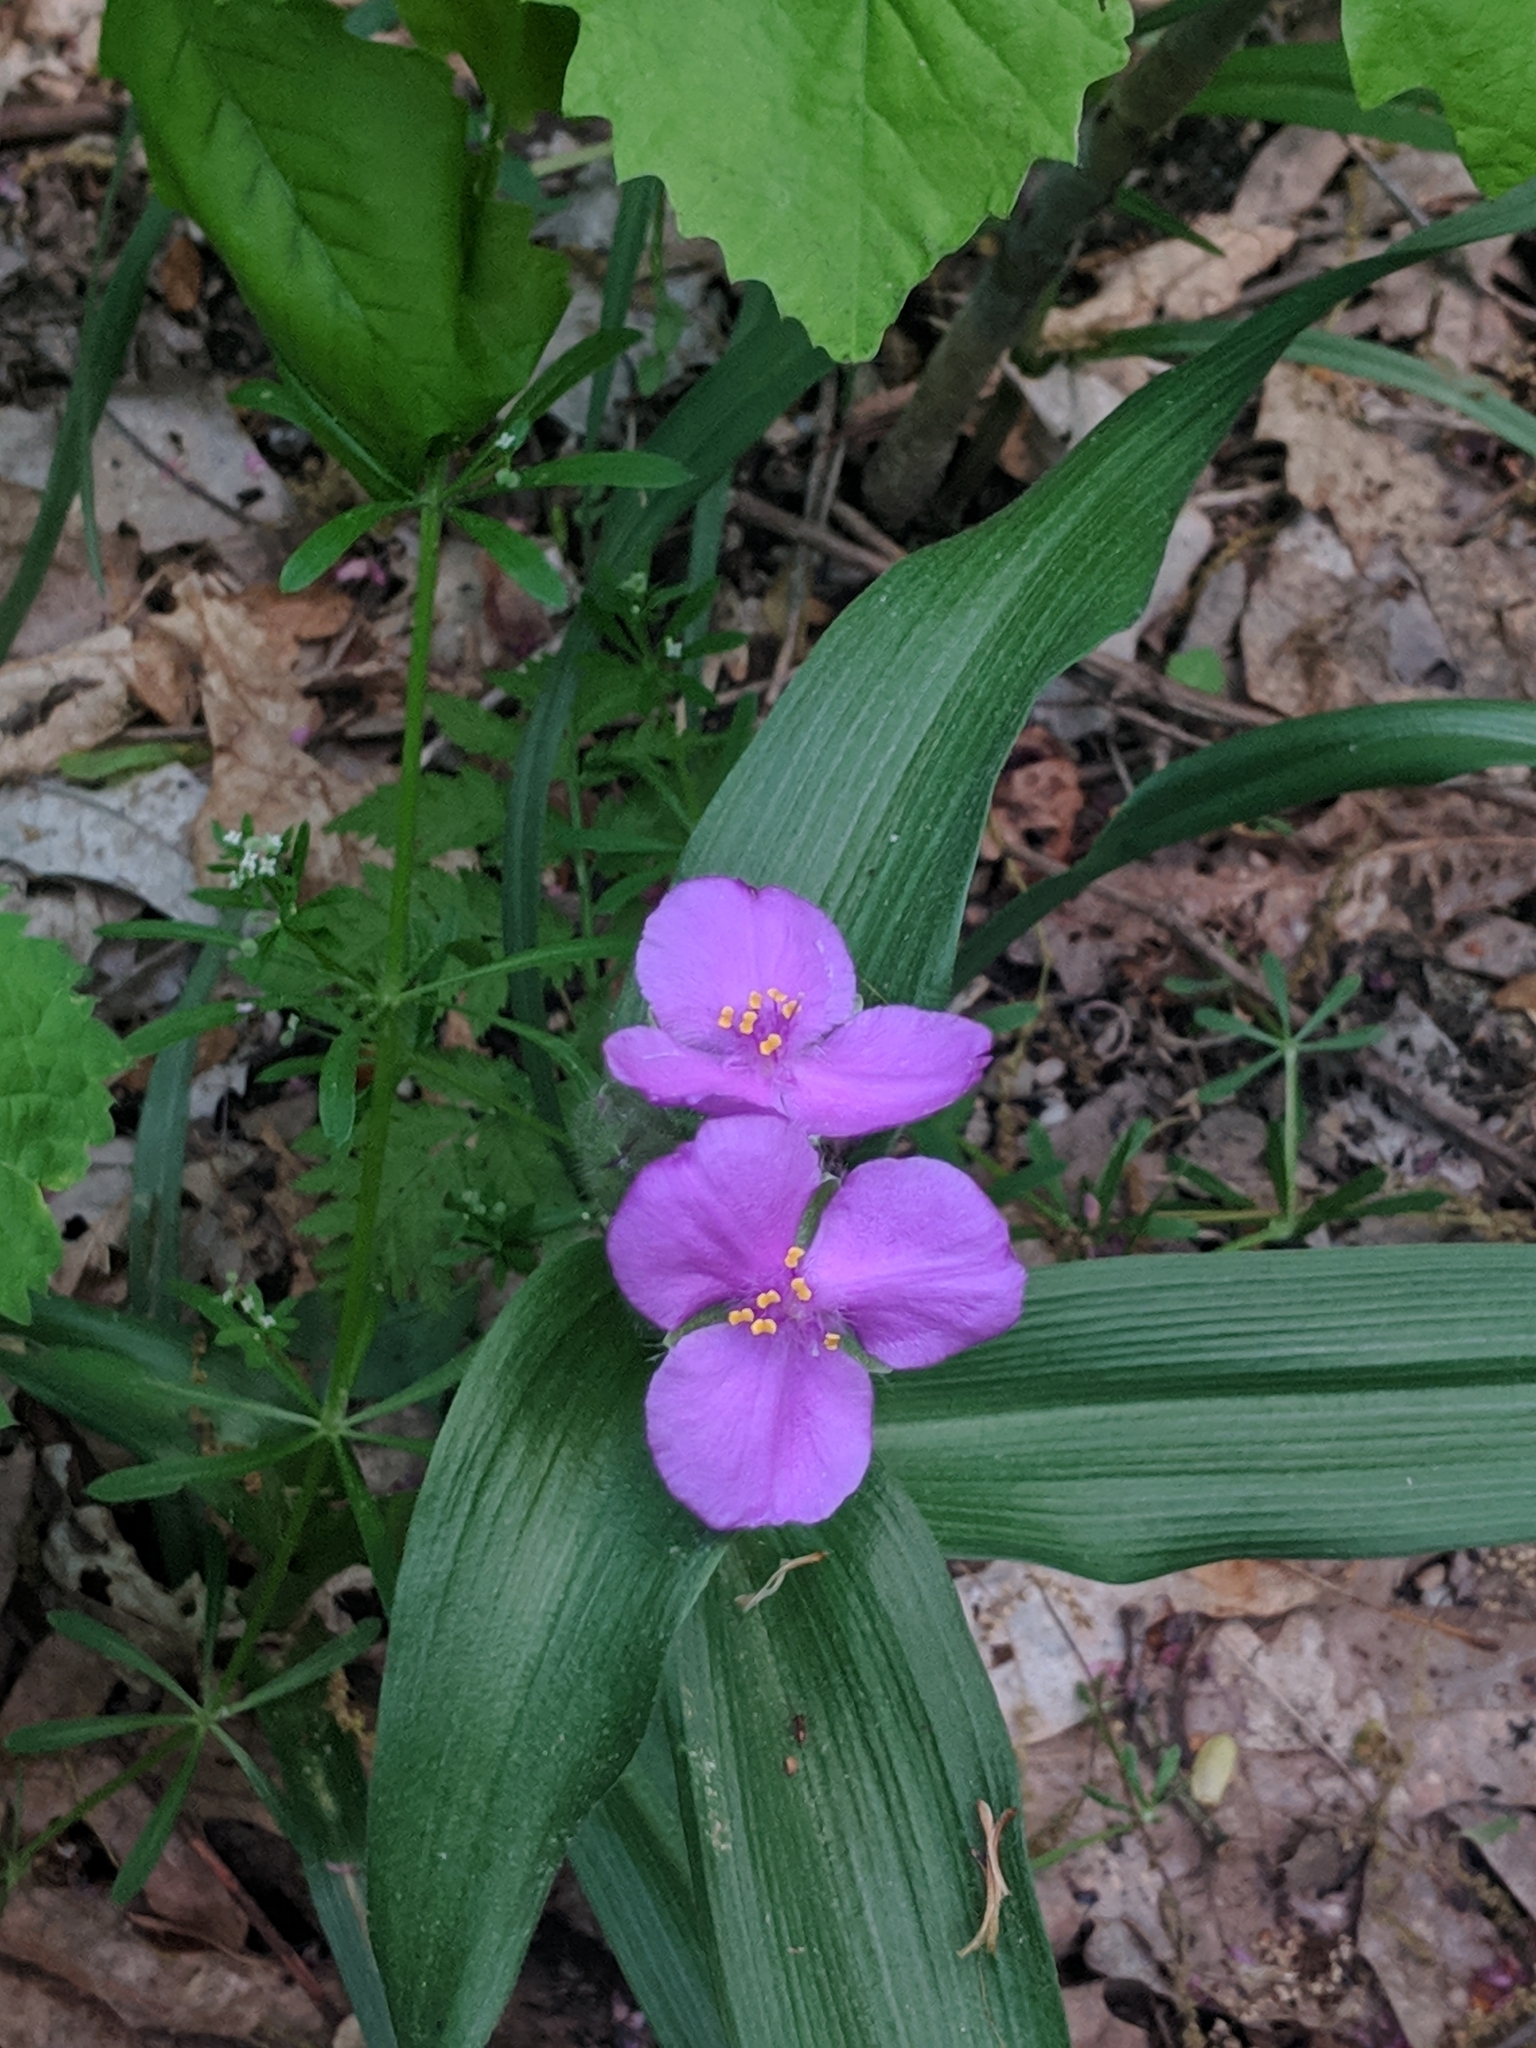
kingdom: Plantae
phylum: Tracheophyta
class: Liliopsida
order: Commelinales
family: Commelinaceae
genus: Tradescantia
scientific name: Tradescantia virginiana
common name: Spiderwort
